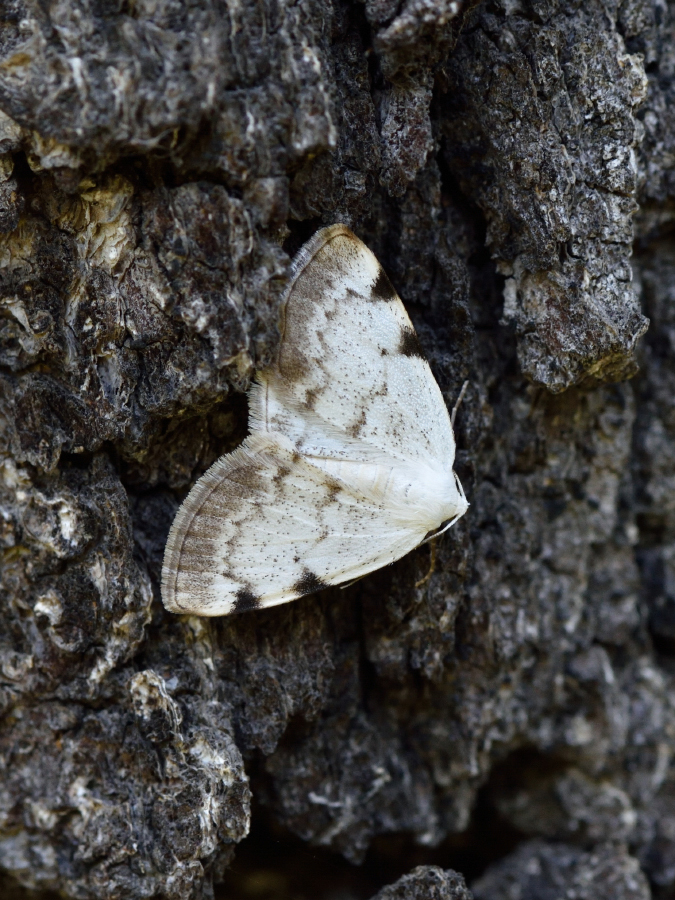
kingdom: Animalia
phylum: Arthropoda
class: Insecta
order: Lepidoptera
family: Geometridae
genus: Lomographa
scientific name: Lomographa bimaculata
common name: White-pinion spotted
